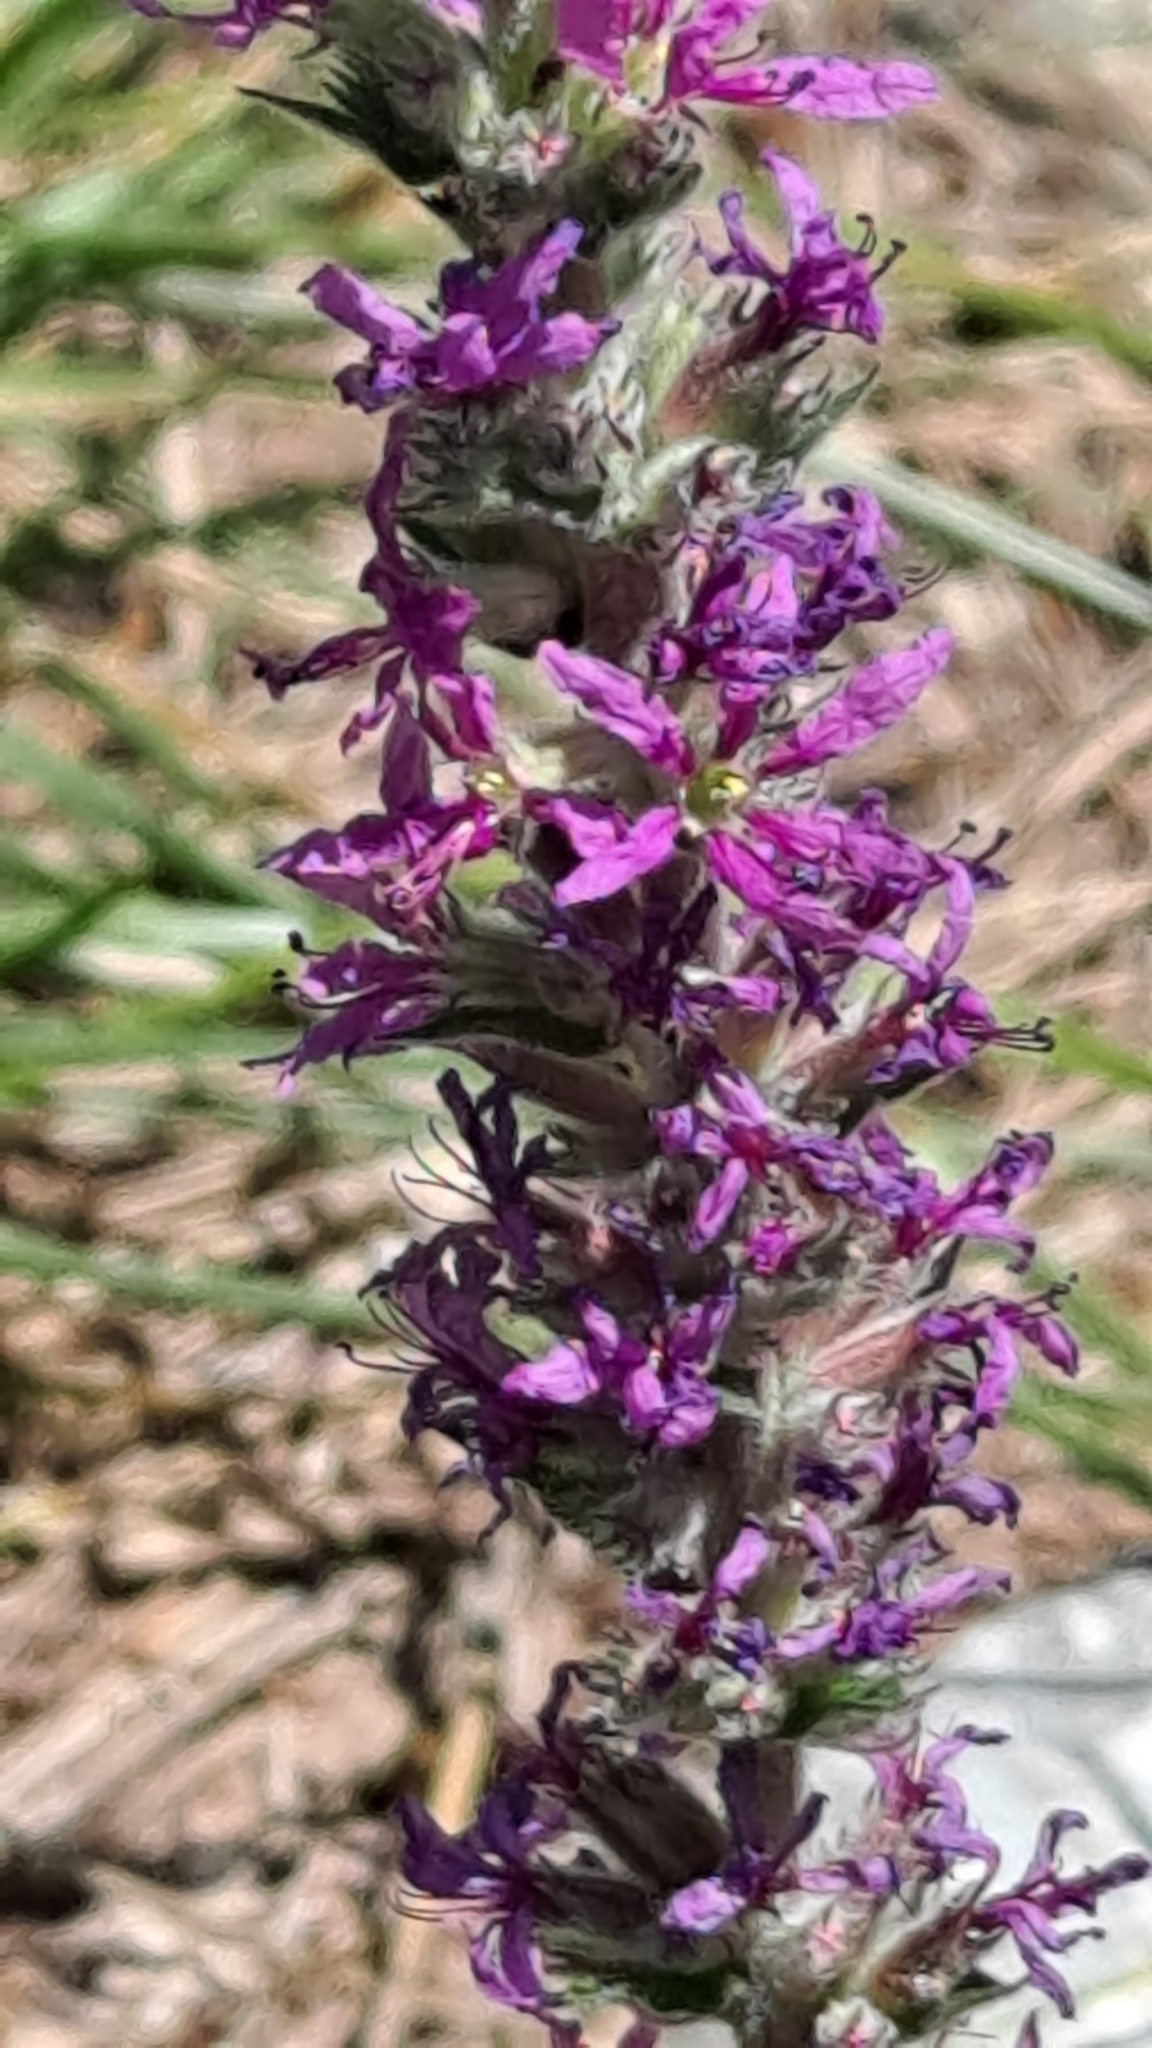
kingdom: Plantae
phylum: Tracheophyta
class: Magnoliopsida
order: Myrtales
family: Lythraceae
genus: Lythrum
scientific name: Lythrum salicaria
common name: Purple loosestrife
